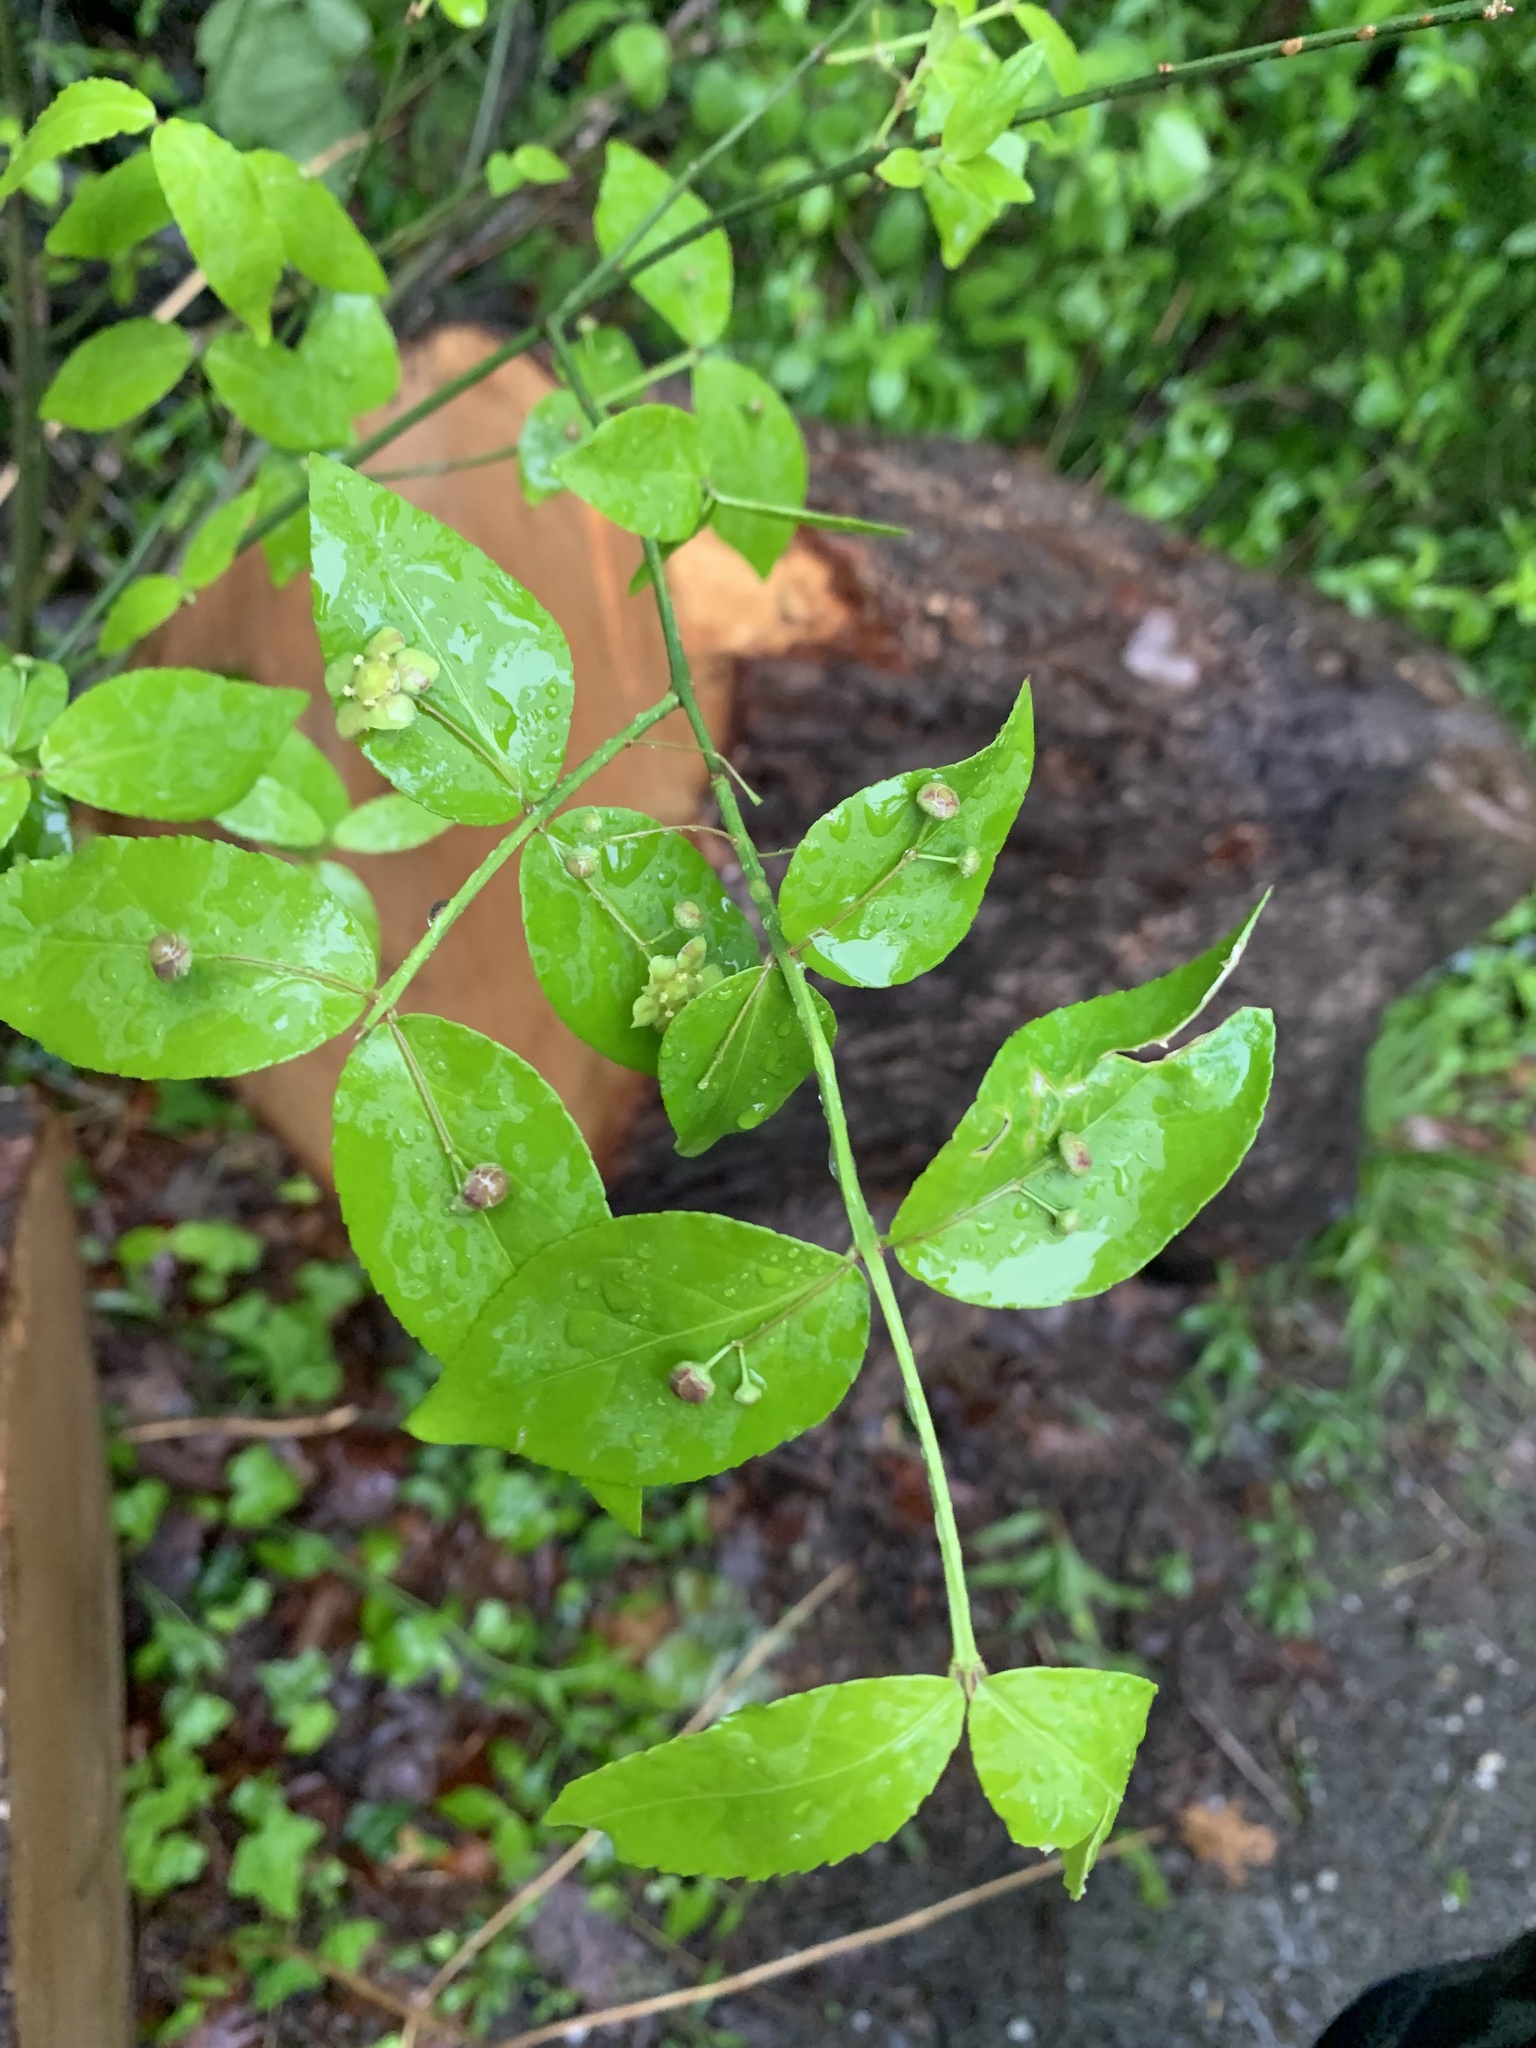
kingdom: Plantae
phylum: Tracheophyta
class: Magnoliopsida
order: Celastrales
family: Celastraceae
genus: Euonymus
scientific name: Euonymus americanus
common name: Bursting-heart
